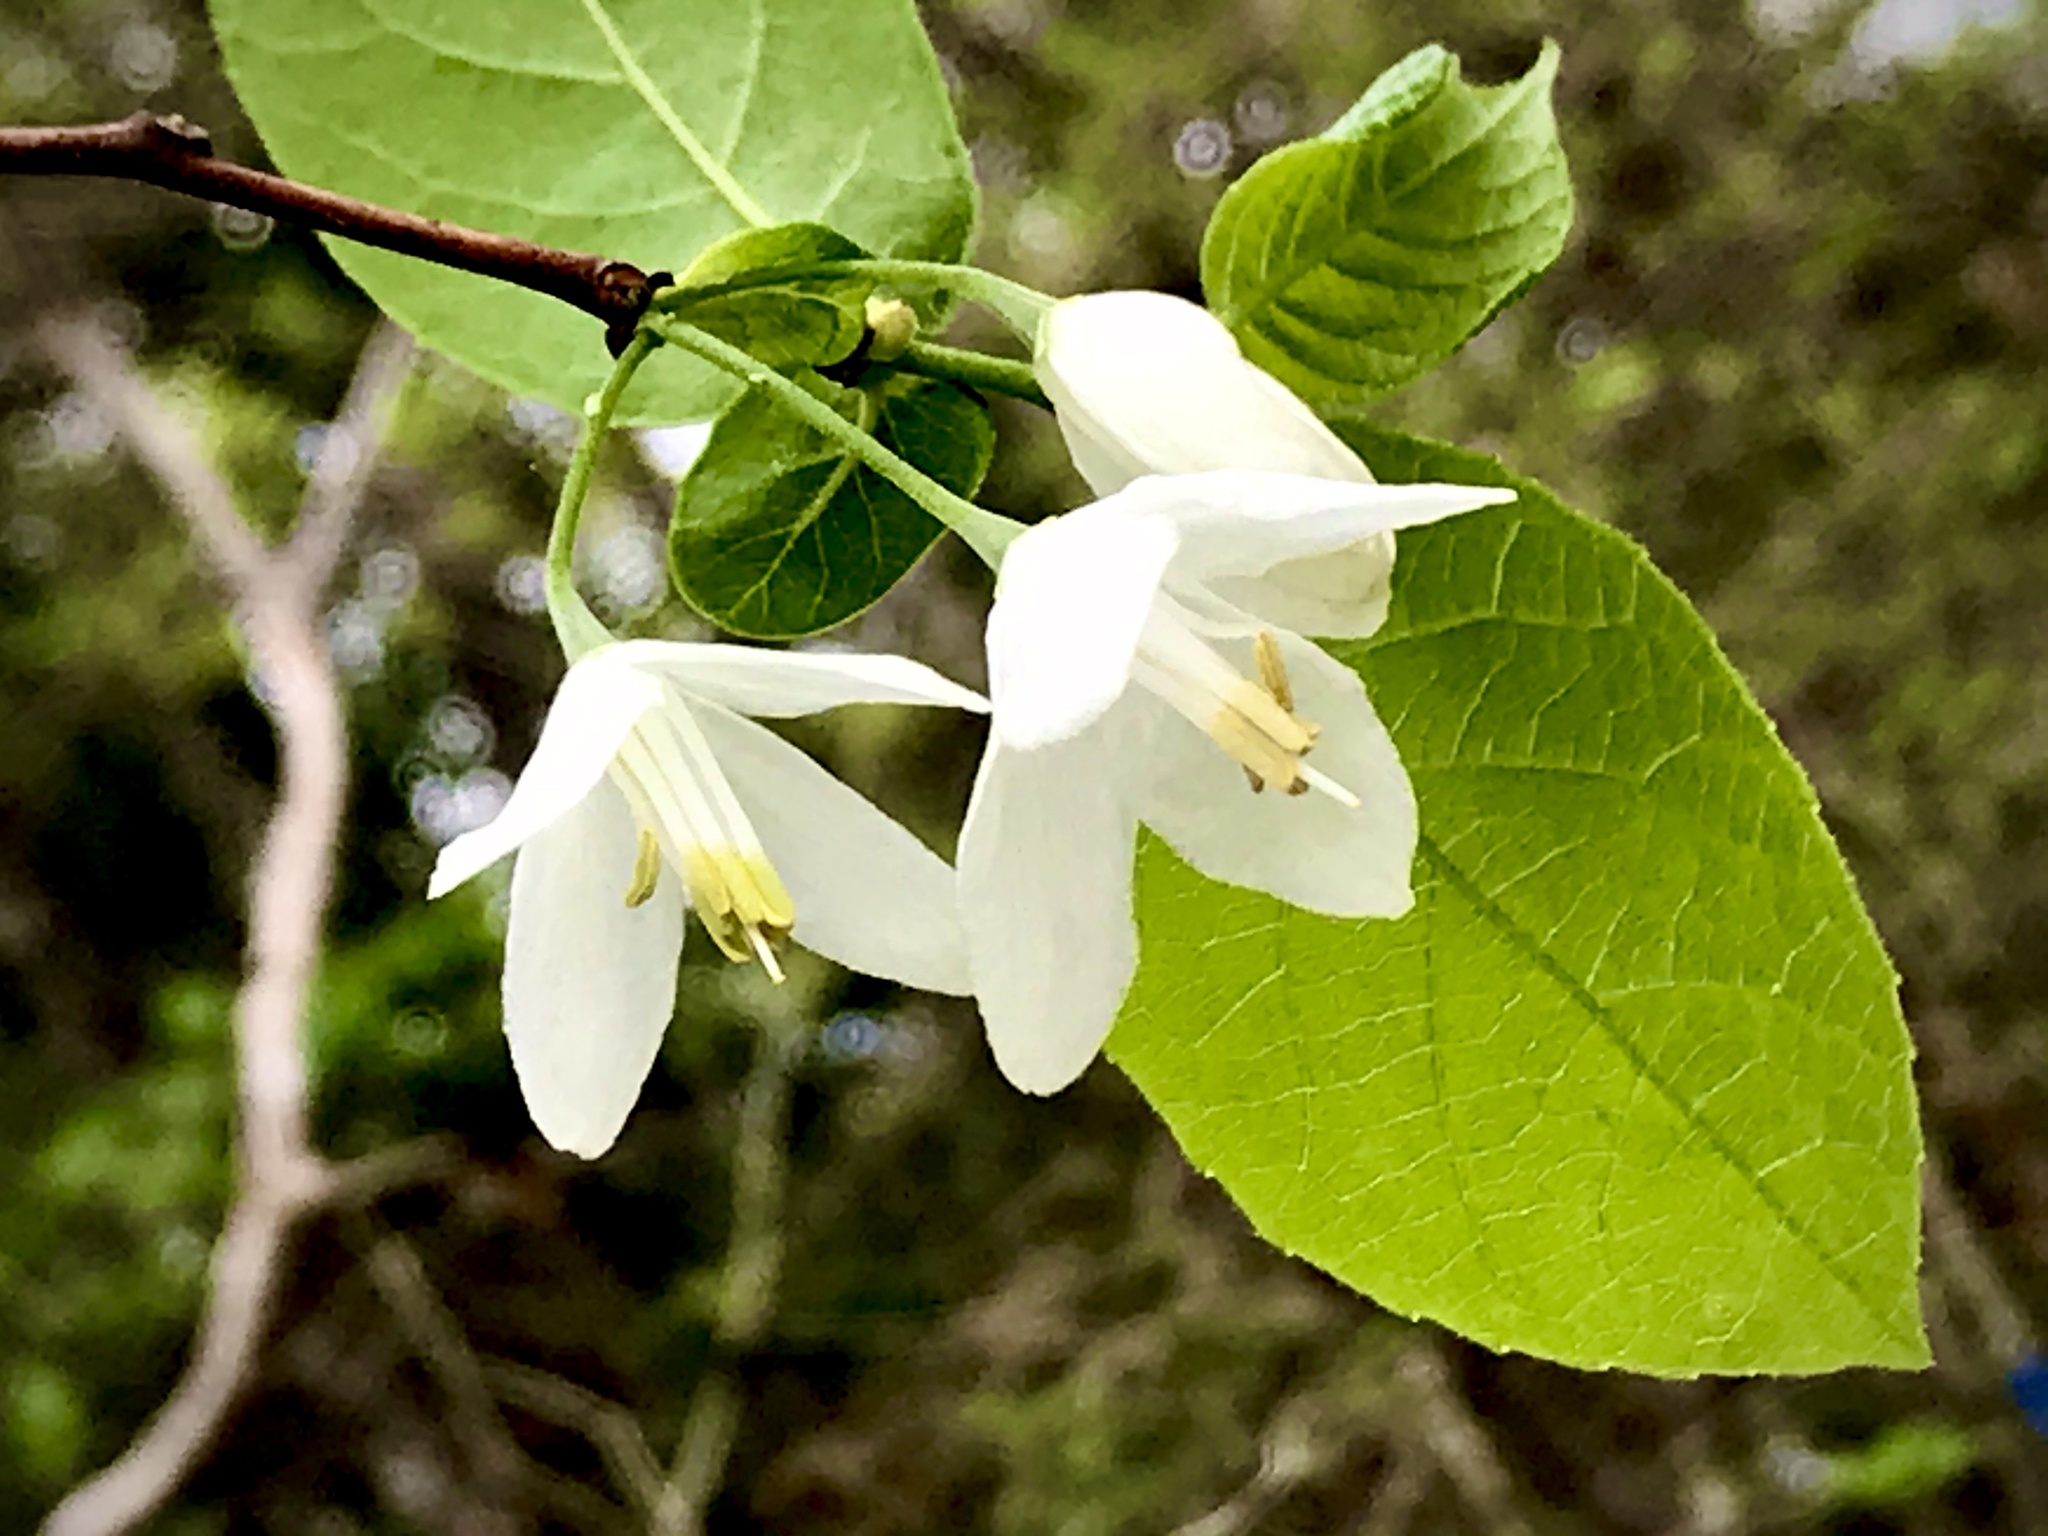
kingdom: Plantae
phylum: Tracheophyta
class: Magnoliopsida
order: Ericales
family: Styracaceae
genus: Halesia
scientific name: Halesia diptera
